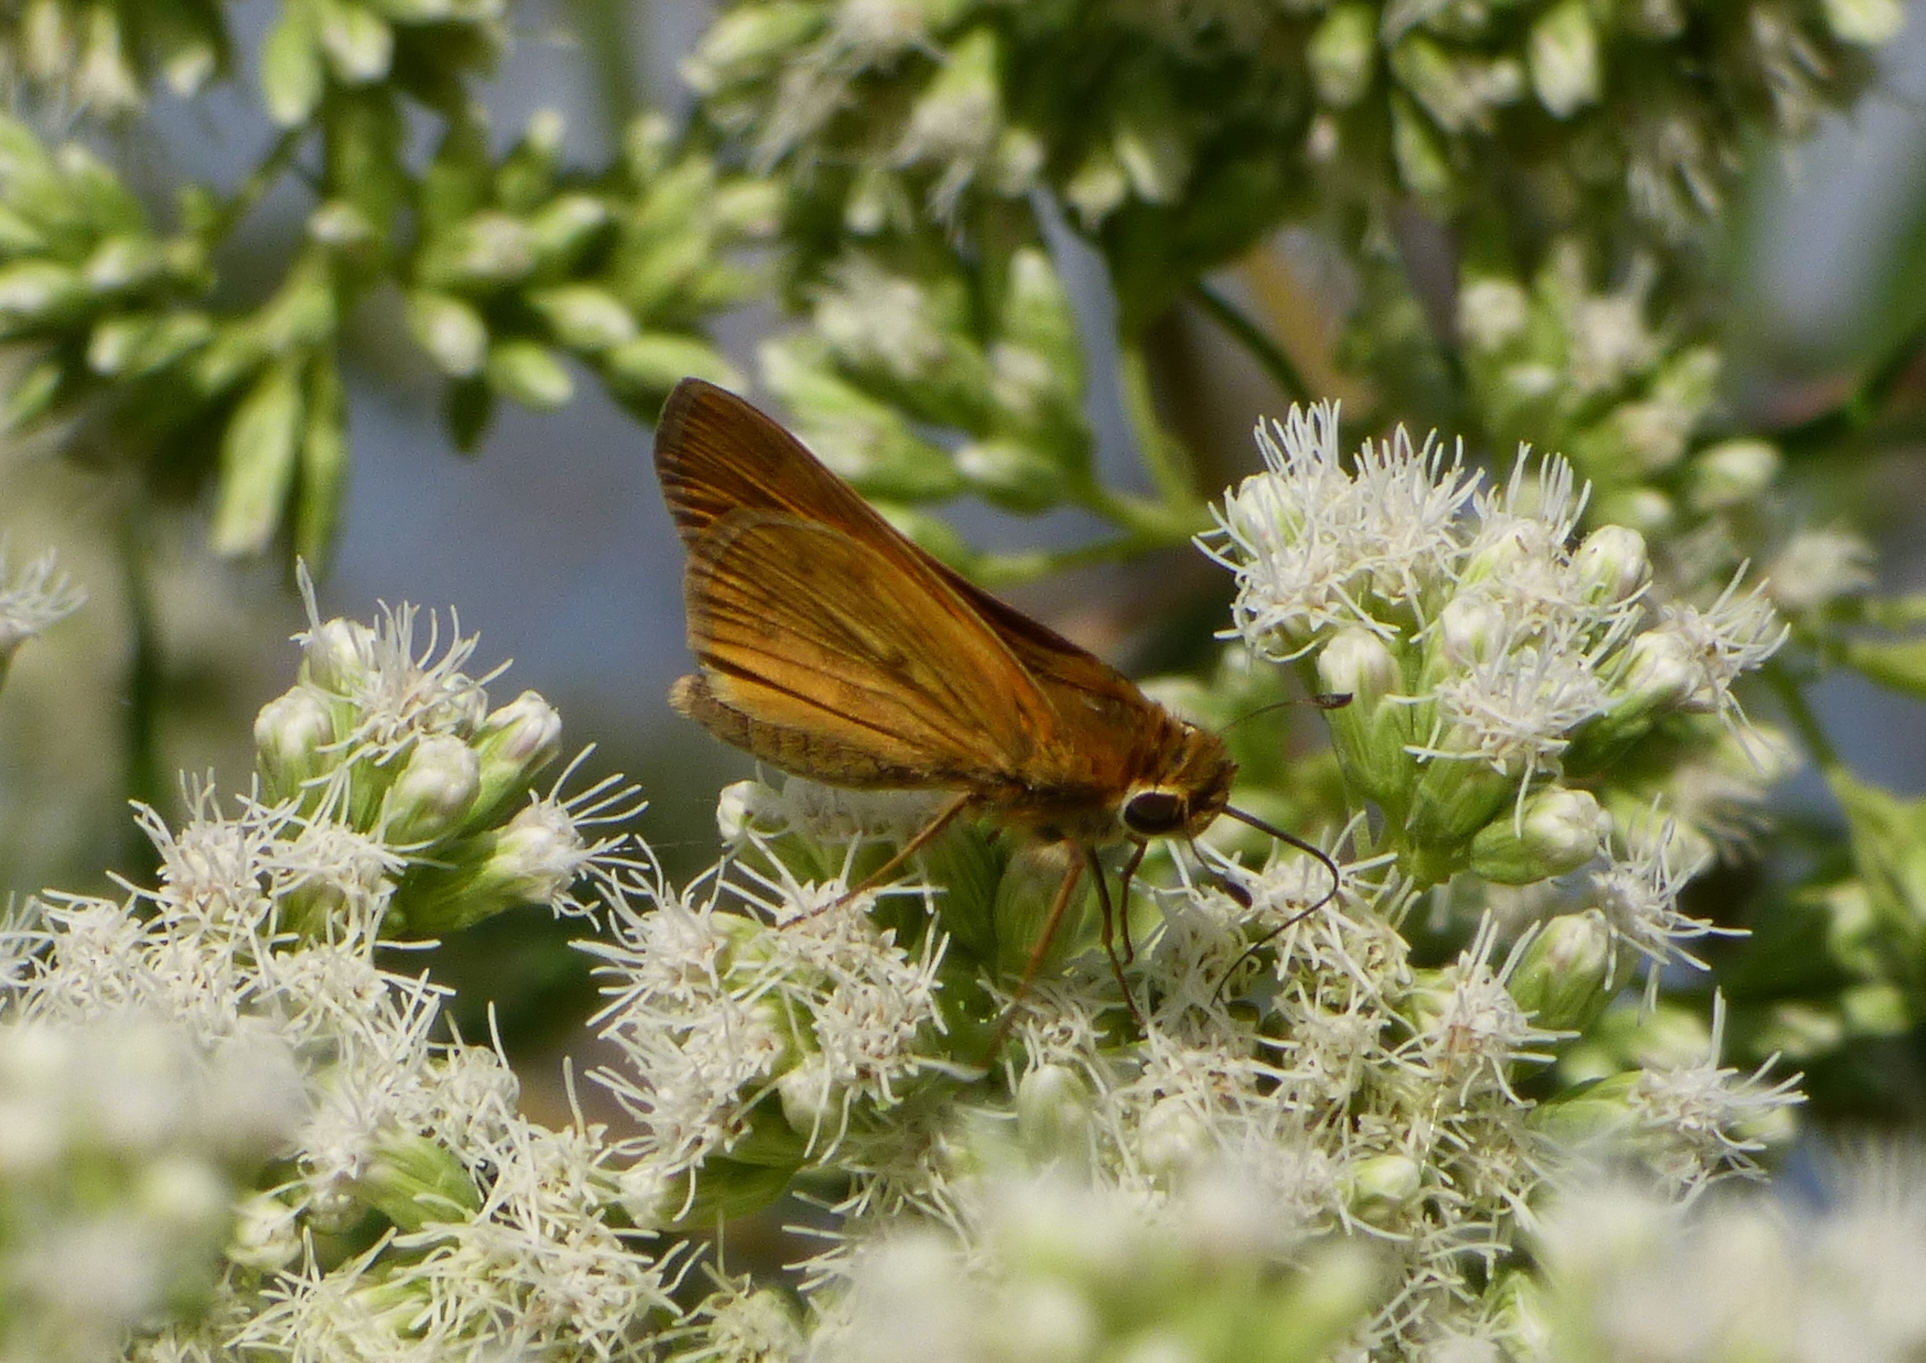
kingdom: Animalia
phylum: Arthropoda
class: Insecta
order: Lepidoptera
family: Hesperiidae
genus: Hylephila
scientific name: Hylephila phyleus
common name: Fiery skipper
